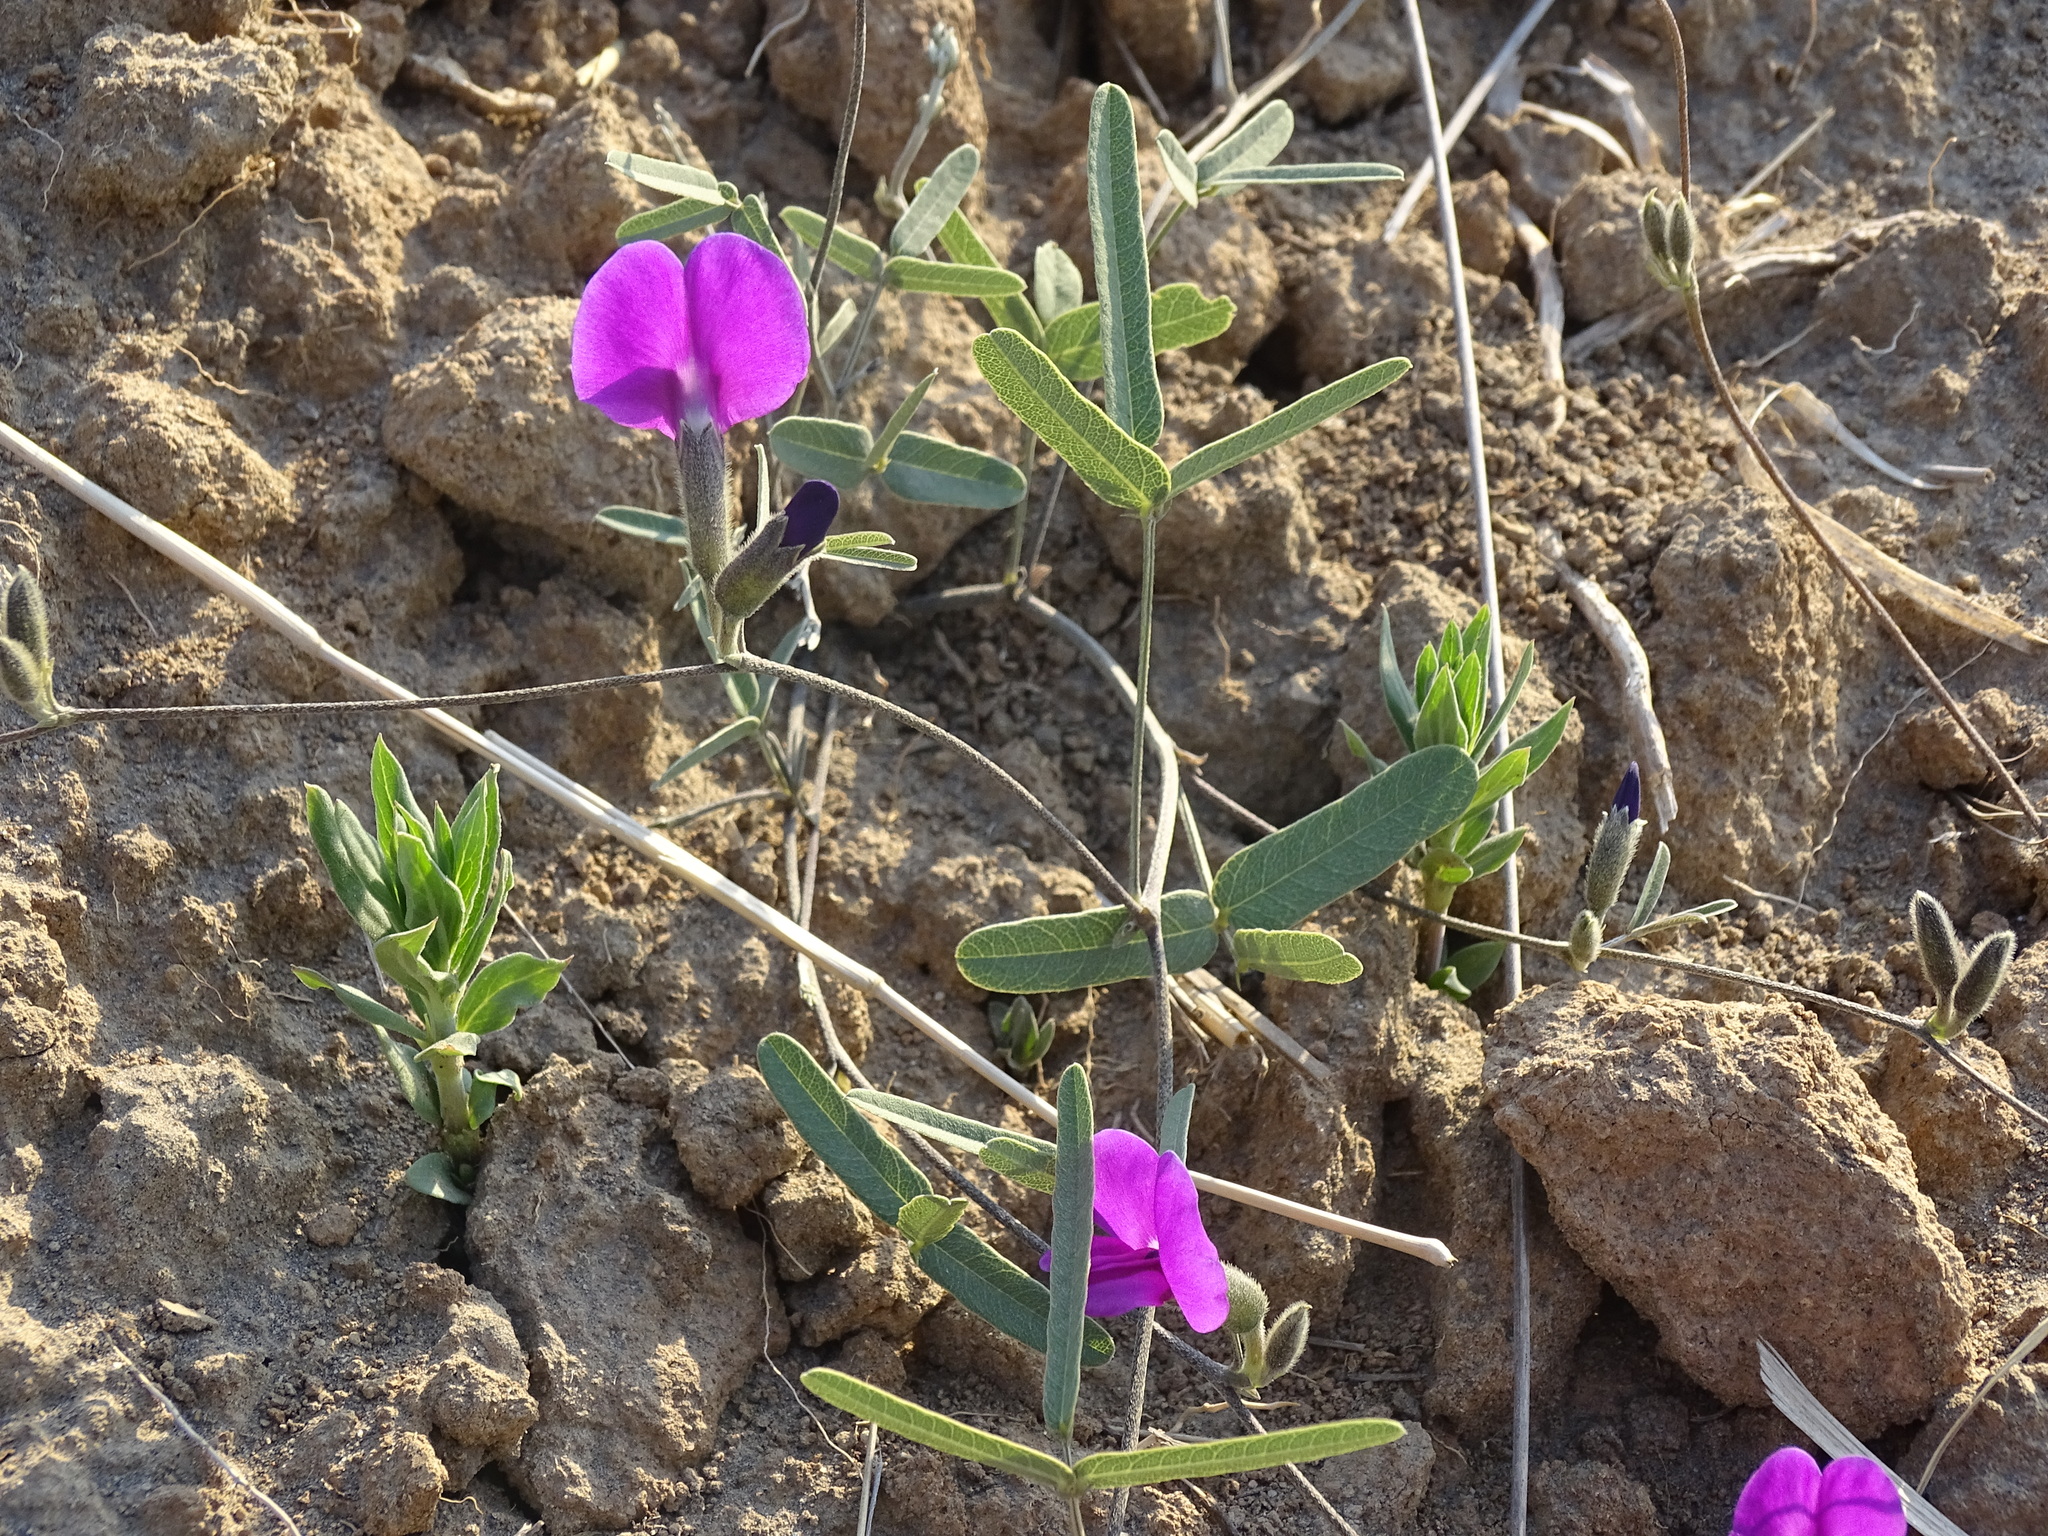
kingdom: Plantae
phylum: Tracheophyta
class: Magnoliopsida
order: Fabales
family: Fabaceae
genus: Cologania
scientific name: Cologania angustifolia
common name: Longleaf cologania
